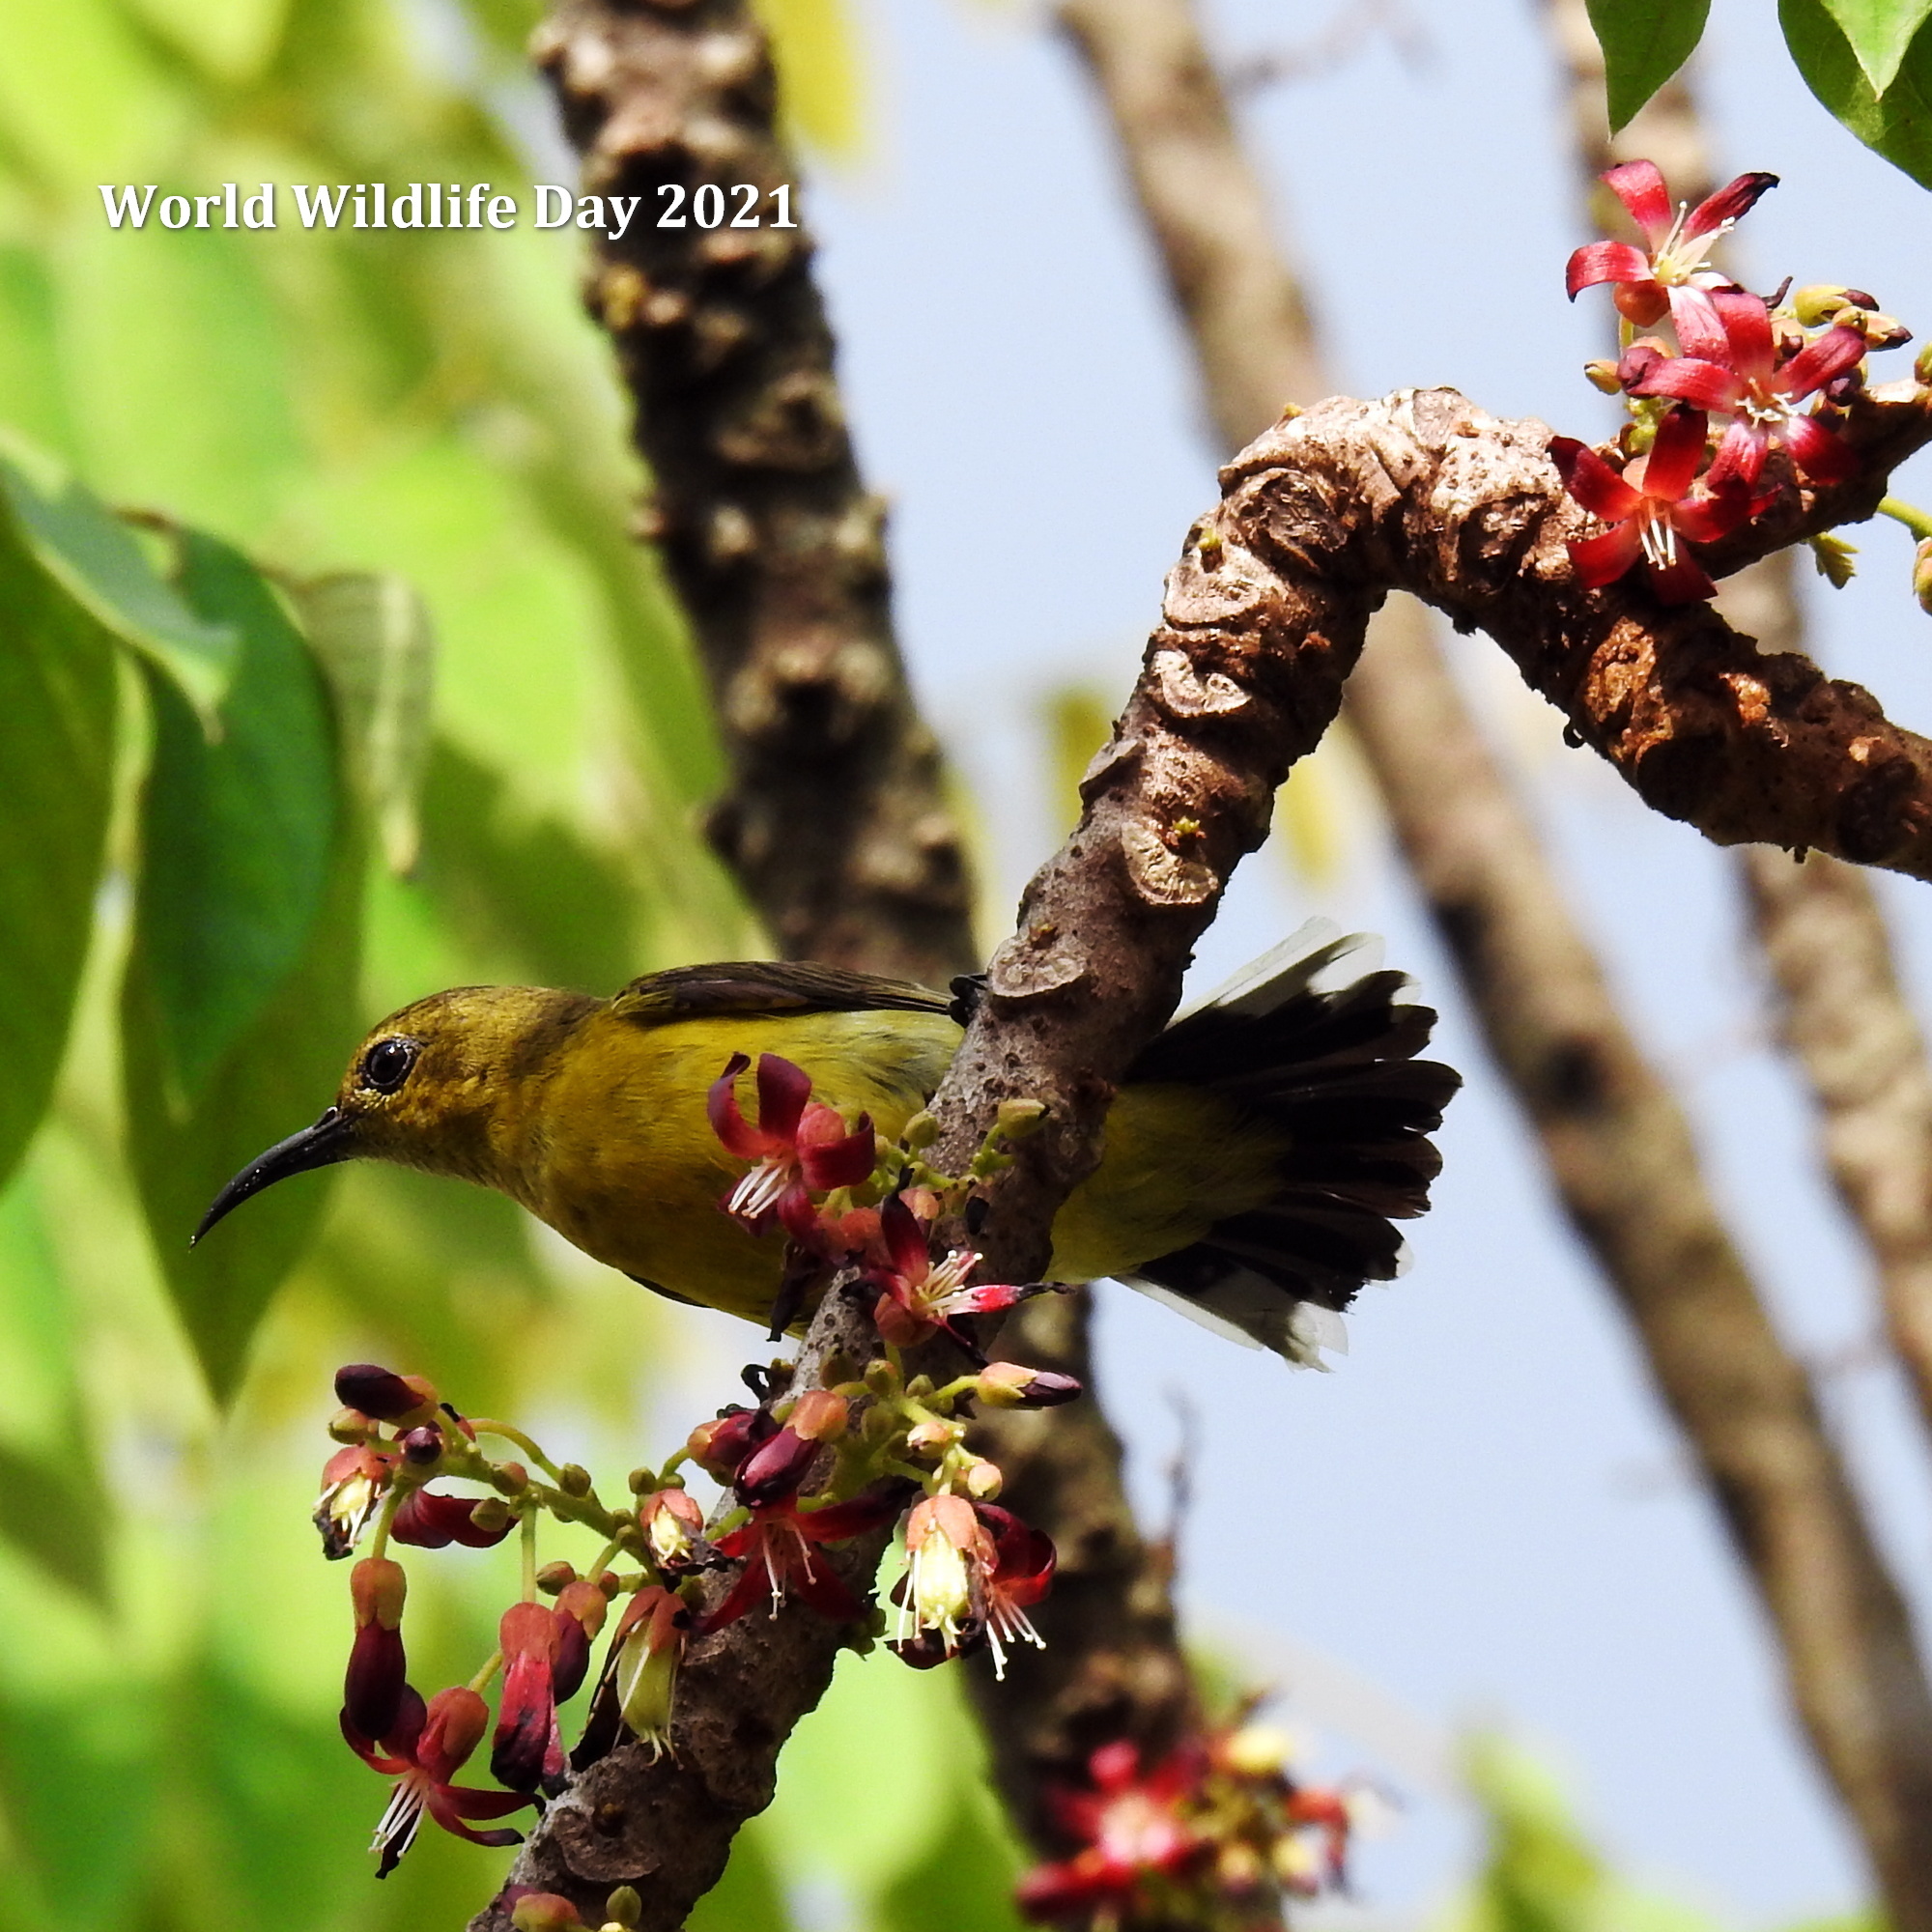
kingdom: Animalia
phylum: Chordata
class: Aves
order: Passeriformes
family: Nectariniidae
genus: Cinnyris
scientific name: Cinnyris
